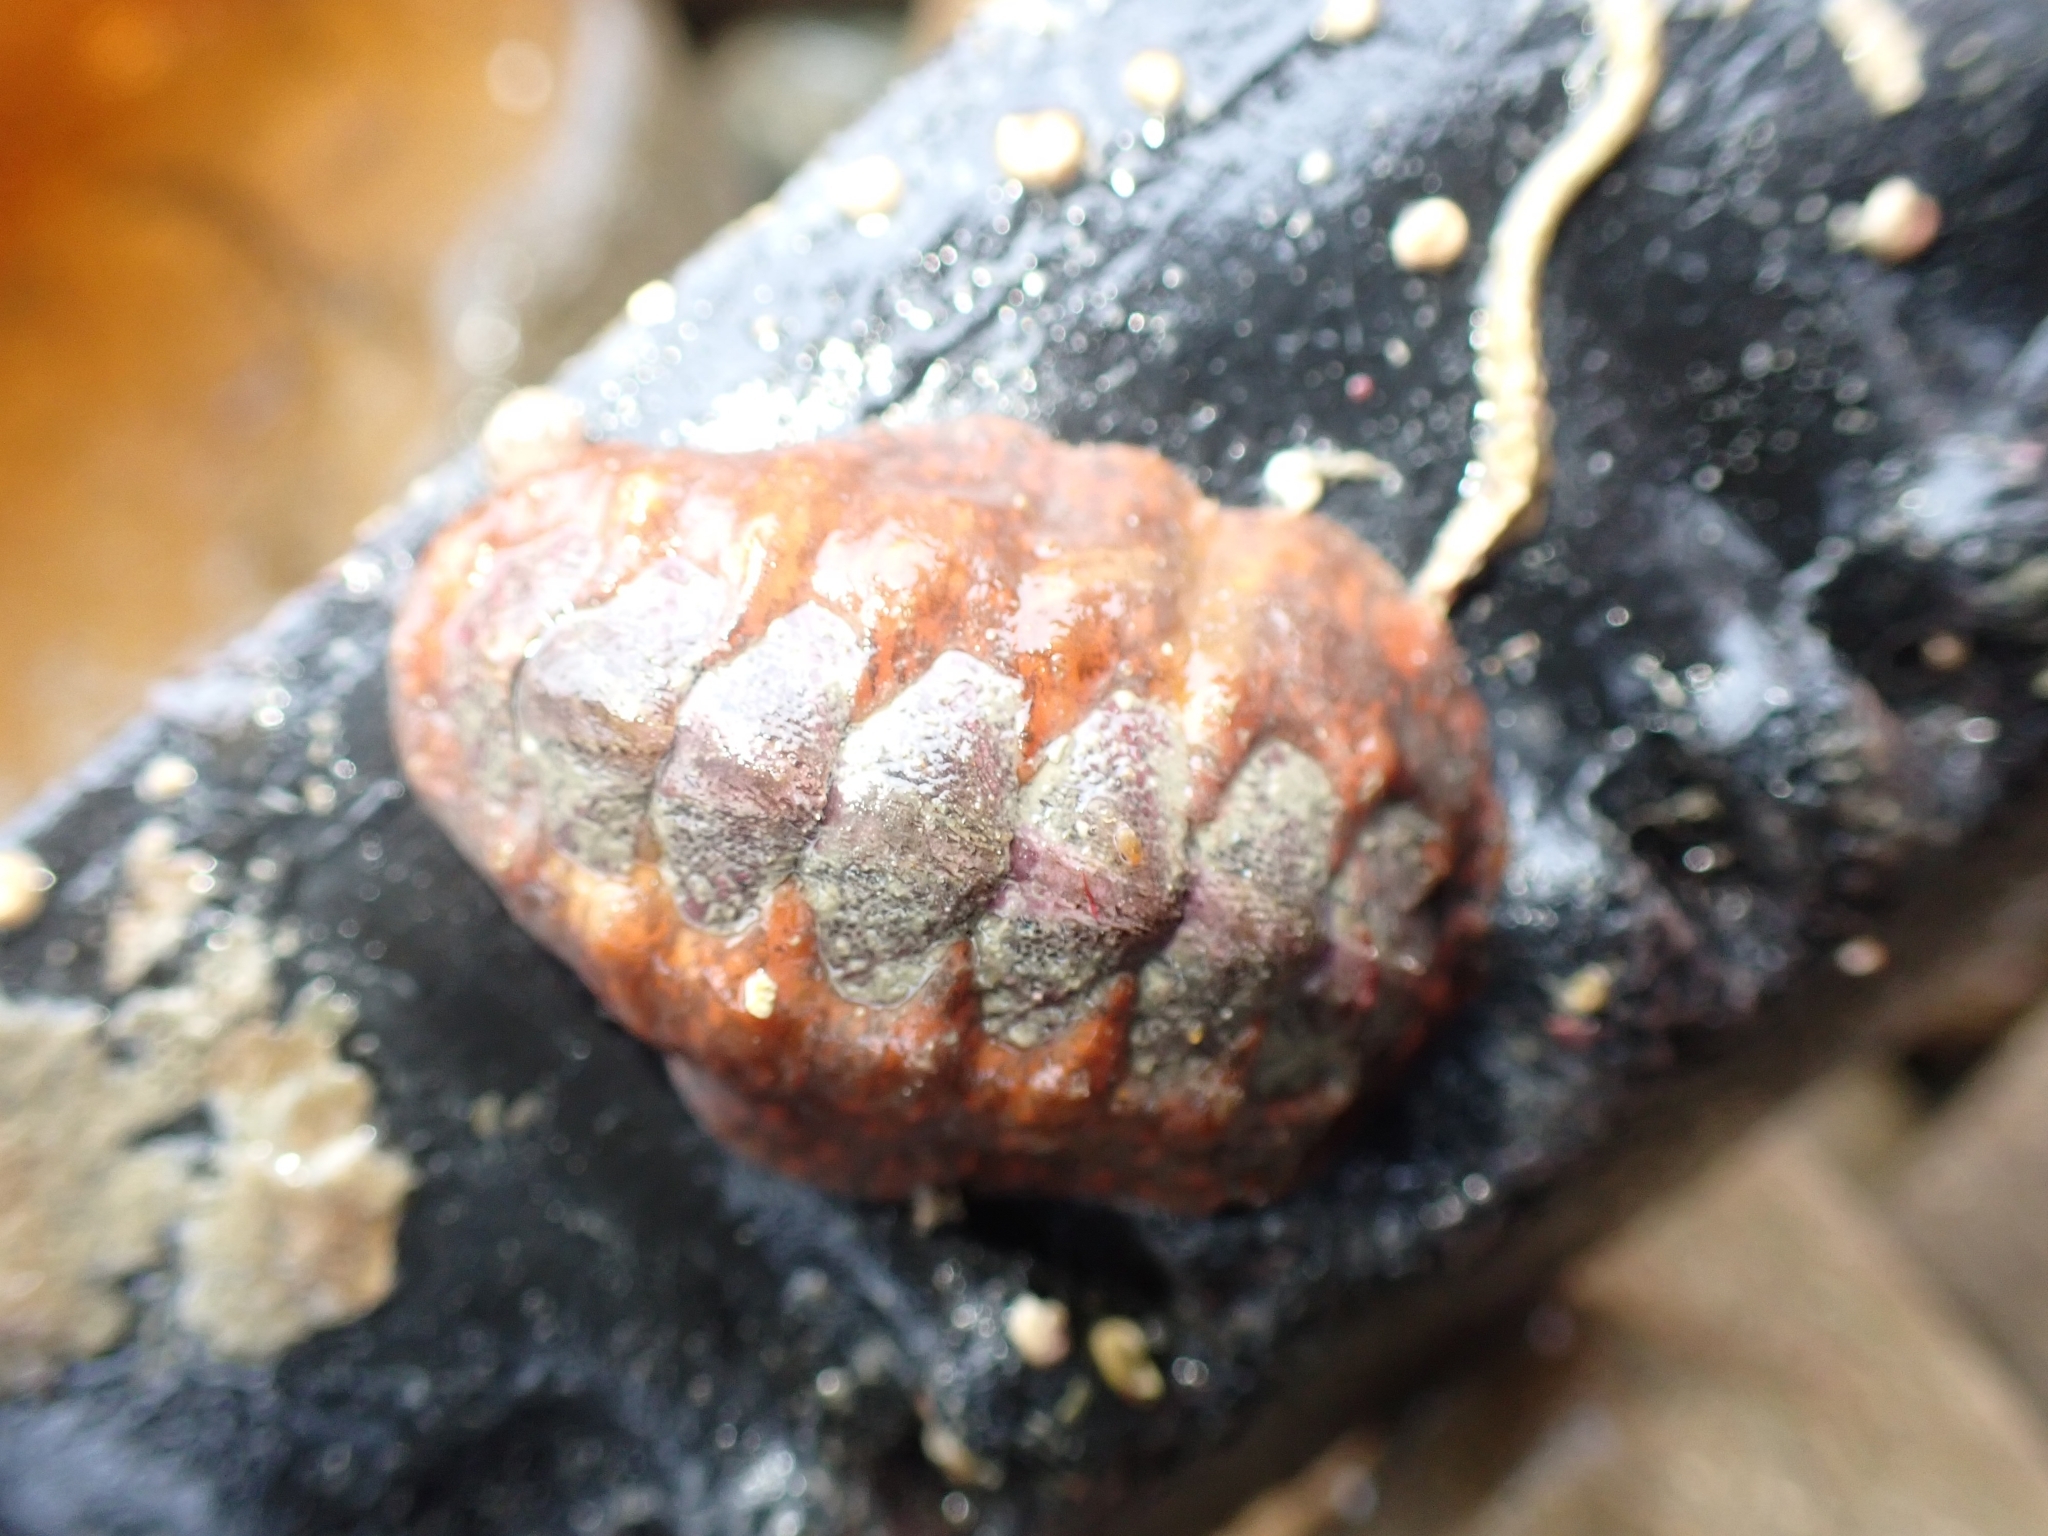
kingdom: Animalia
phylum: Mollusca
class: Polyplacophora
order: Chitonida
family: Acanthochitonidae
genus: Notoplax
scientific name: Notoplax violacea
